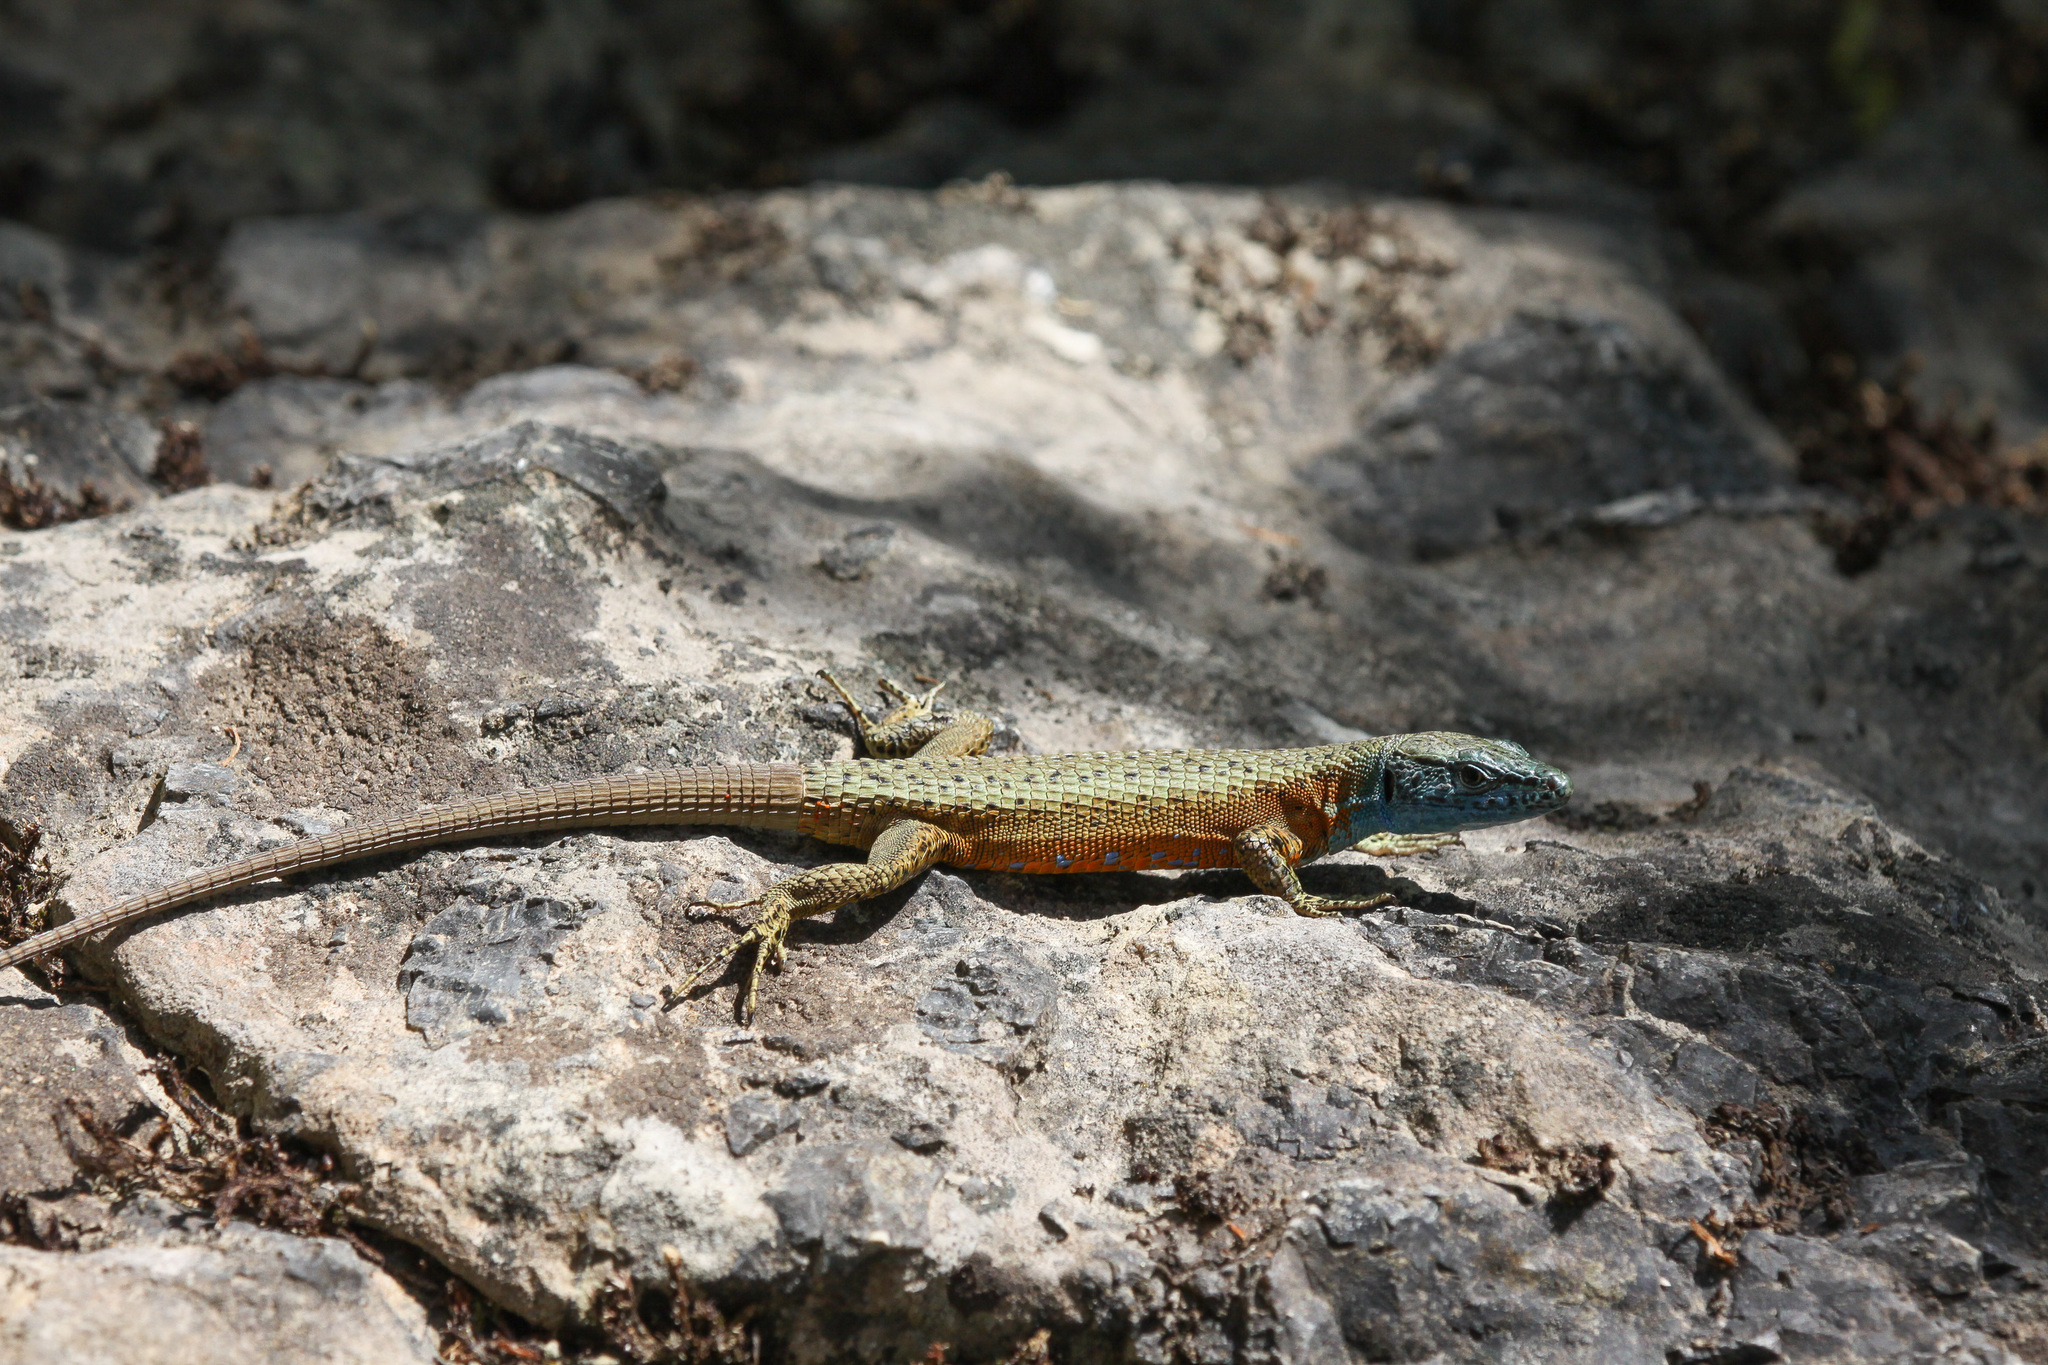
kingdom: Animalia
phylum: Chordata
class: Squamata
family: Lacertidae
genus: Algyroides
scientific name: Algyroides nigropunctatus
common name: Blue-throated keeled lizard
